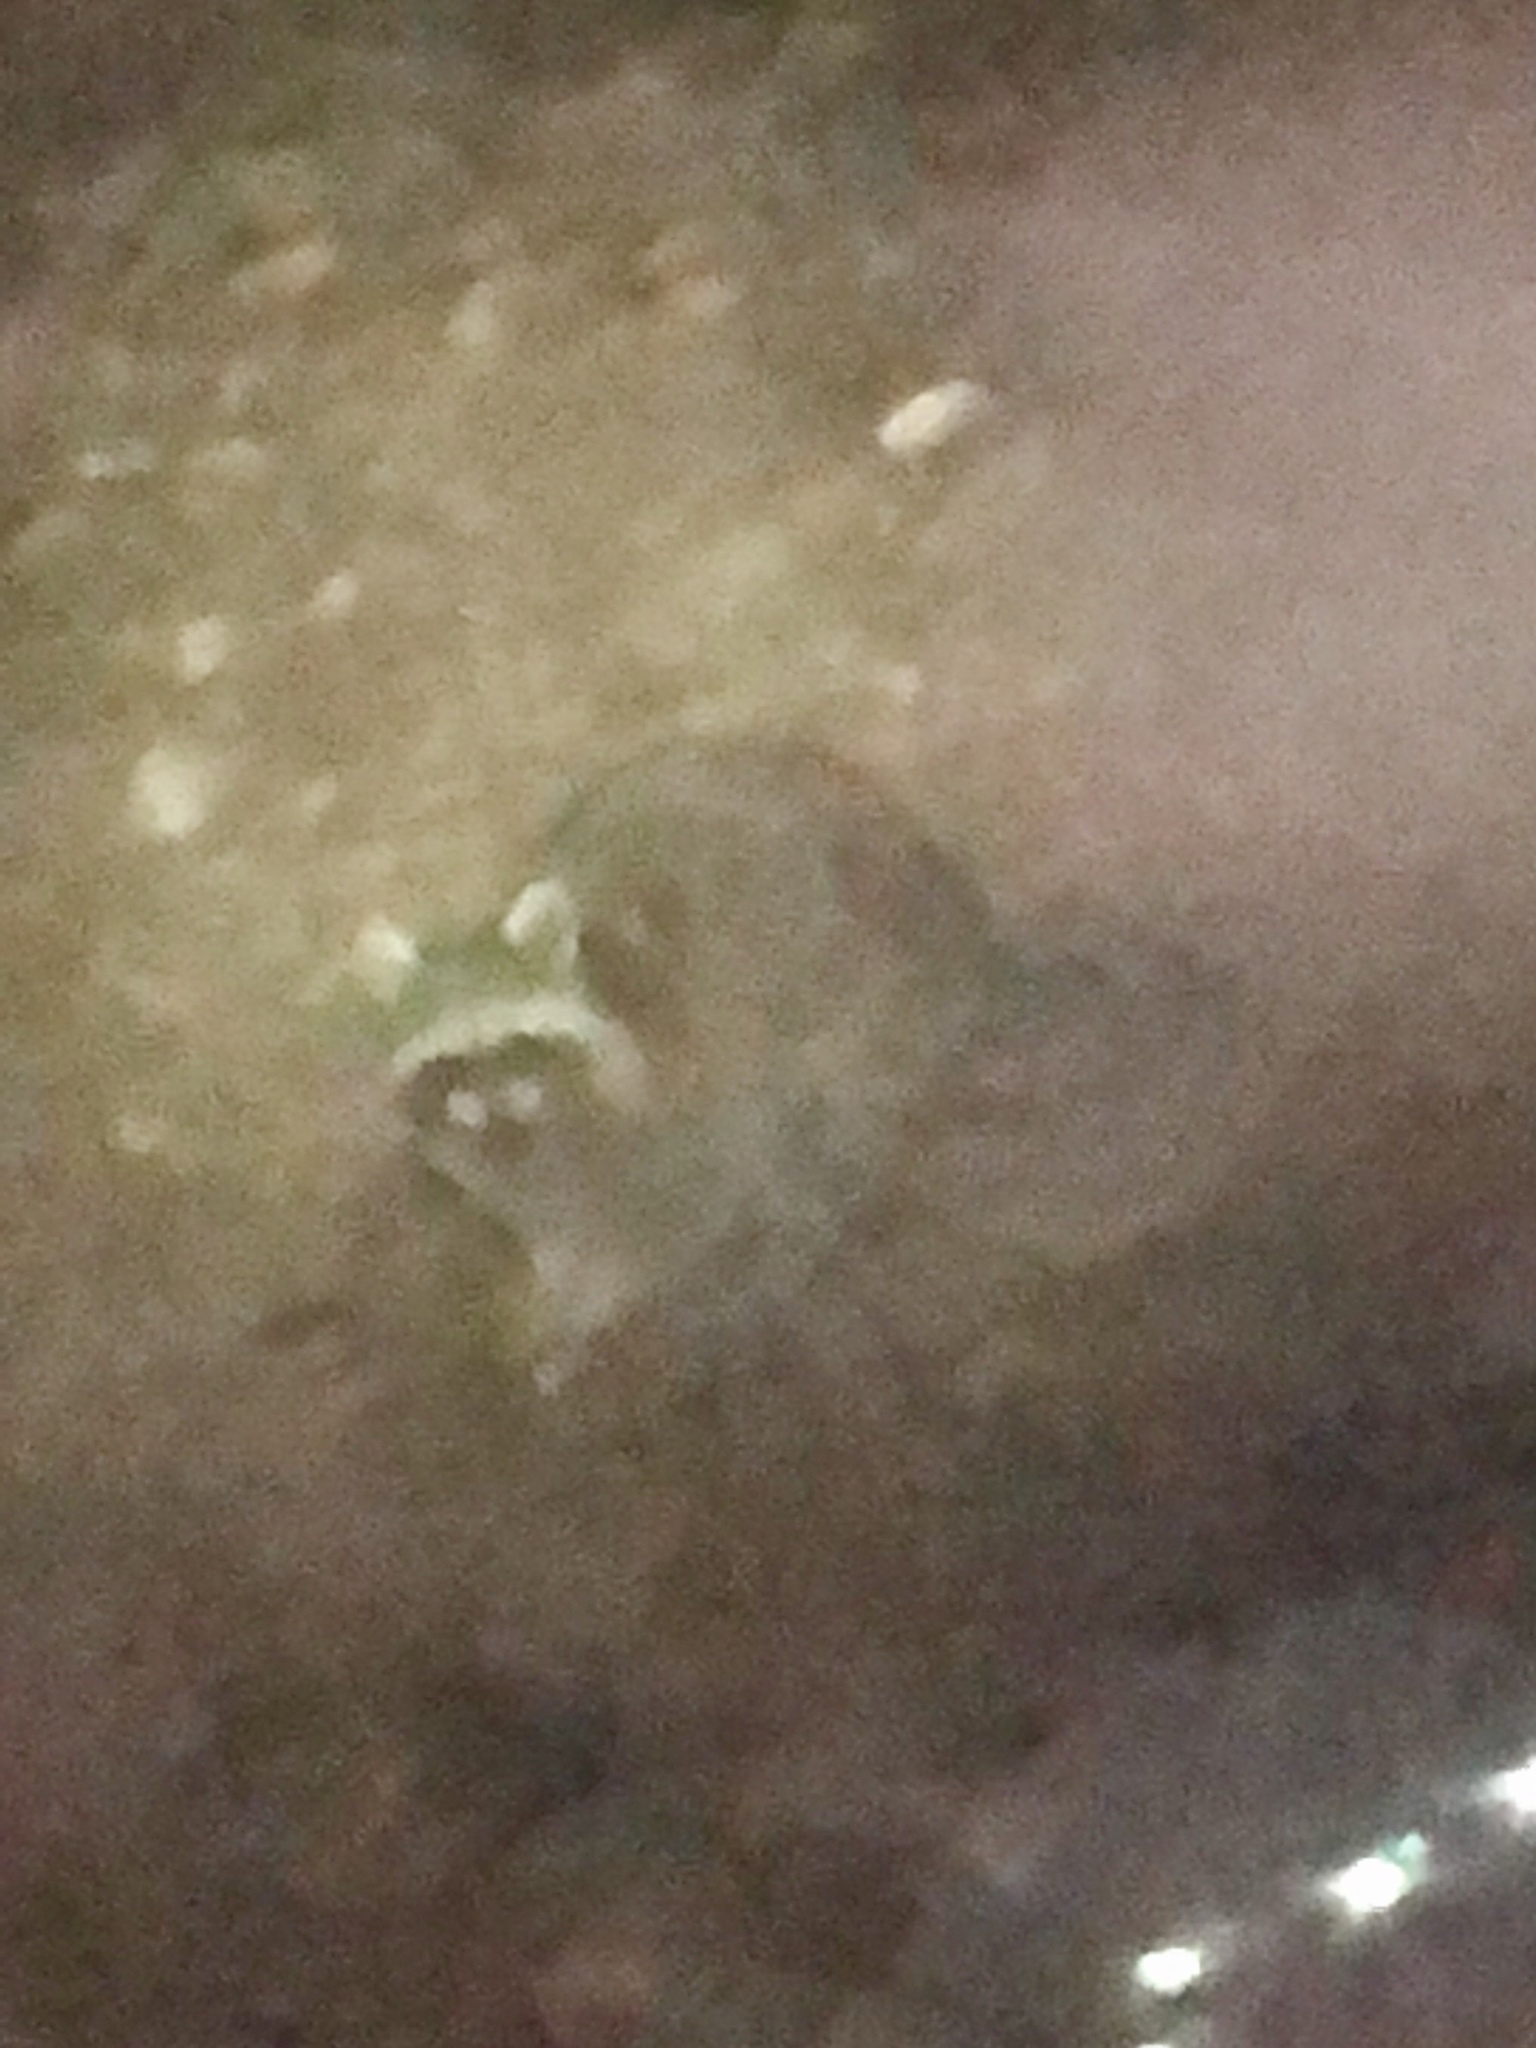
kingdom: Animalia
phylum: Chordata
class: Mammalia
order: Carnivora
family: Procyonidae
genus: Procyon
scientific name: Procyon lotor
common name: Raccoon
